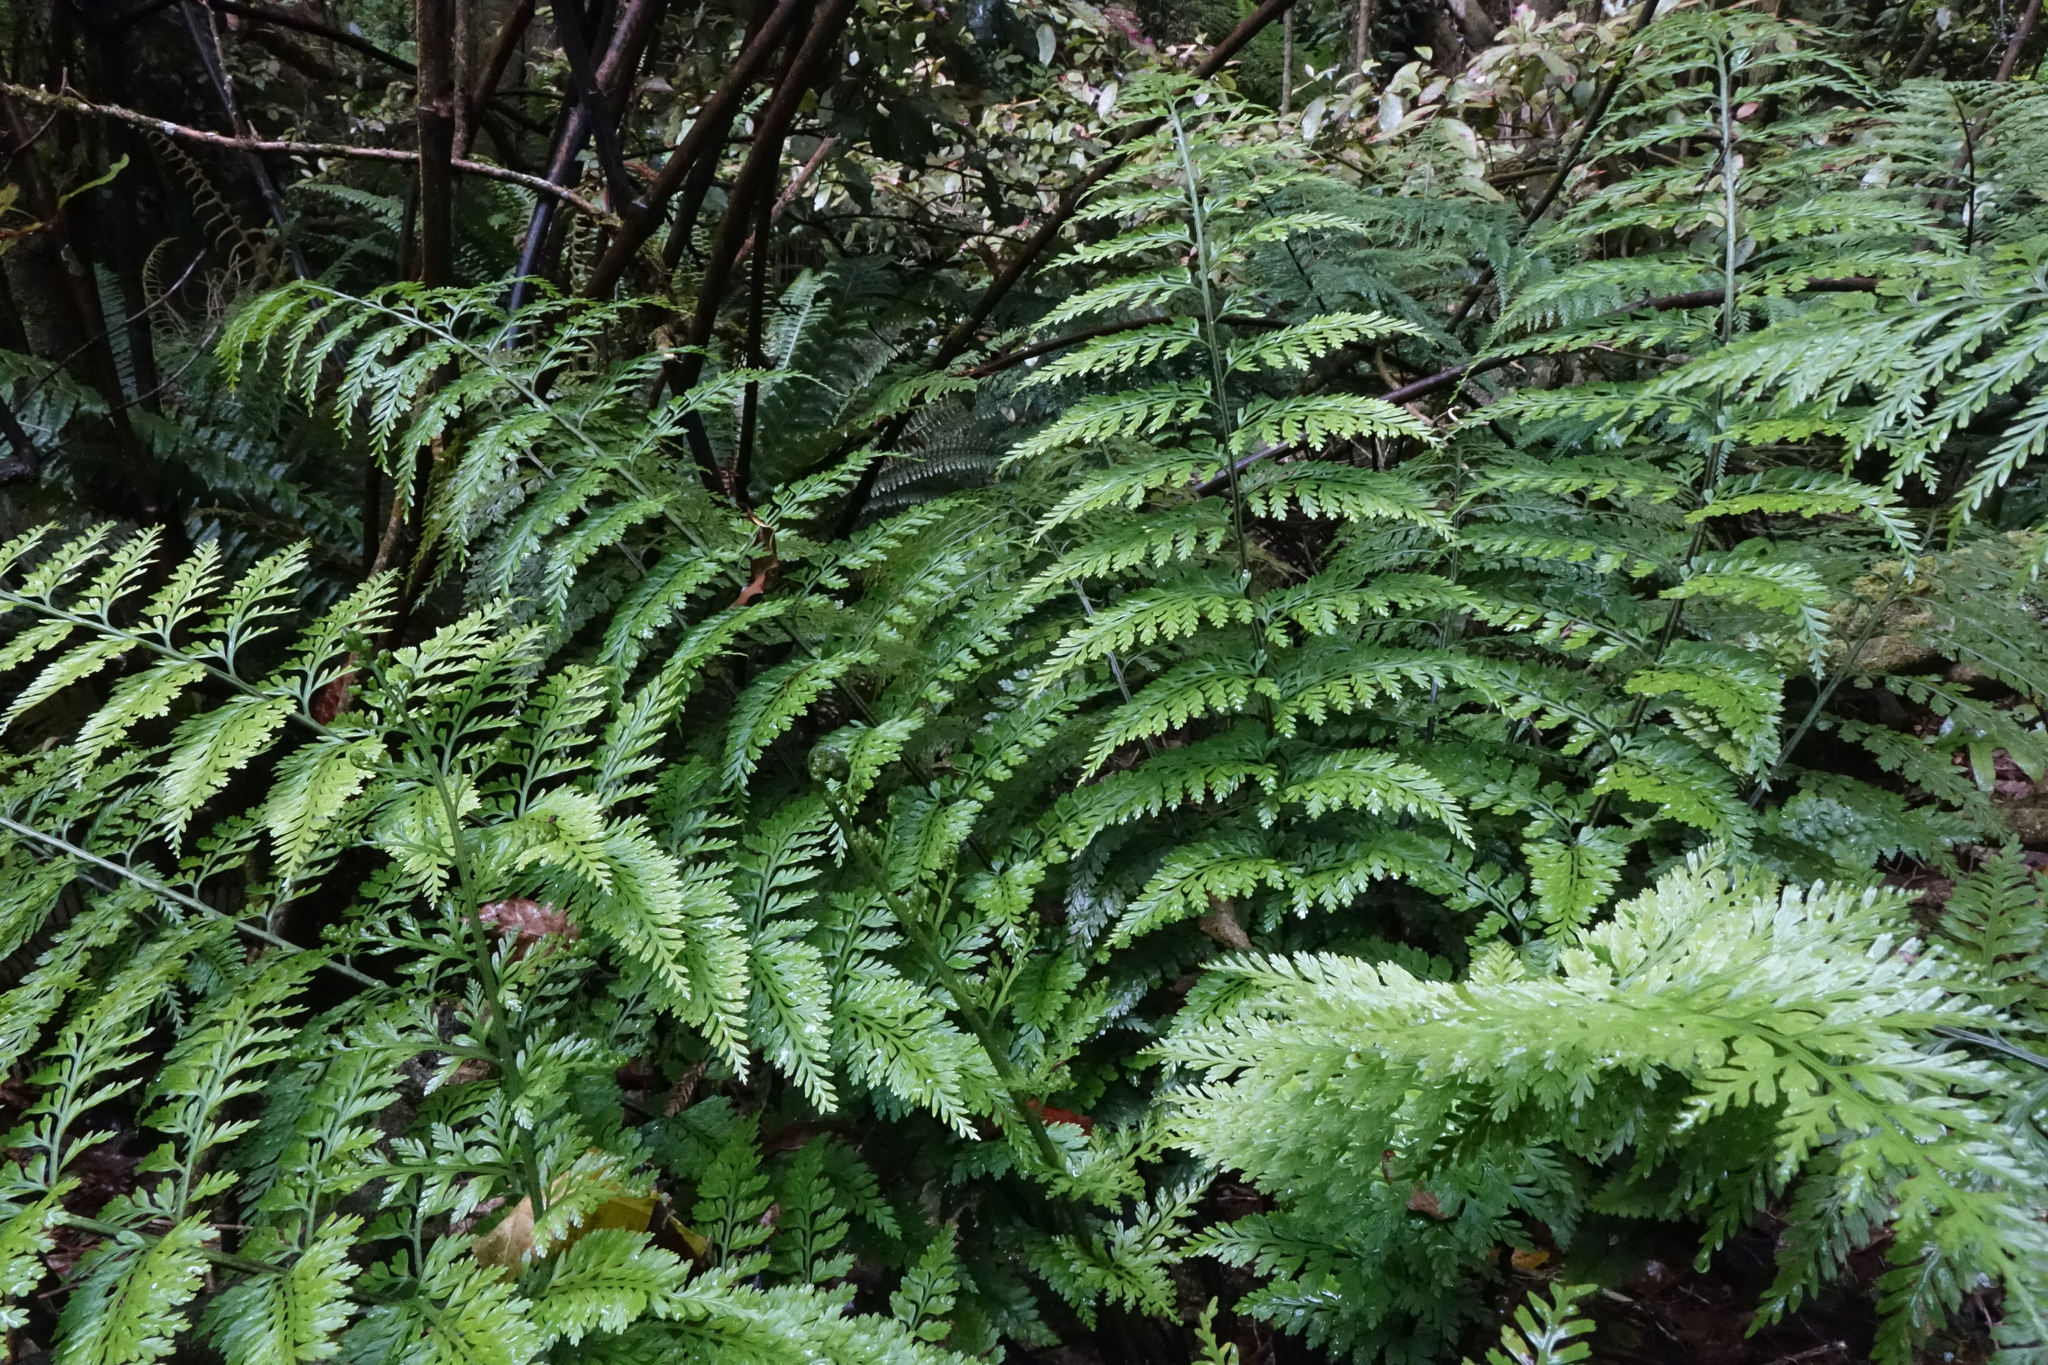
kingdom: Plantae
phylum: Tracheophyta
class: Polypodiopsida
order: Polypodiales
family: Aspleniaceae
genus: Asplenium
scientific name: Asplenium
